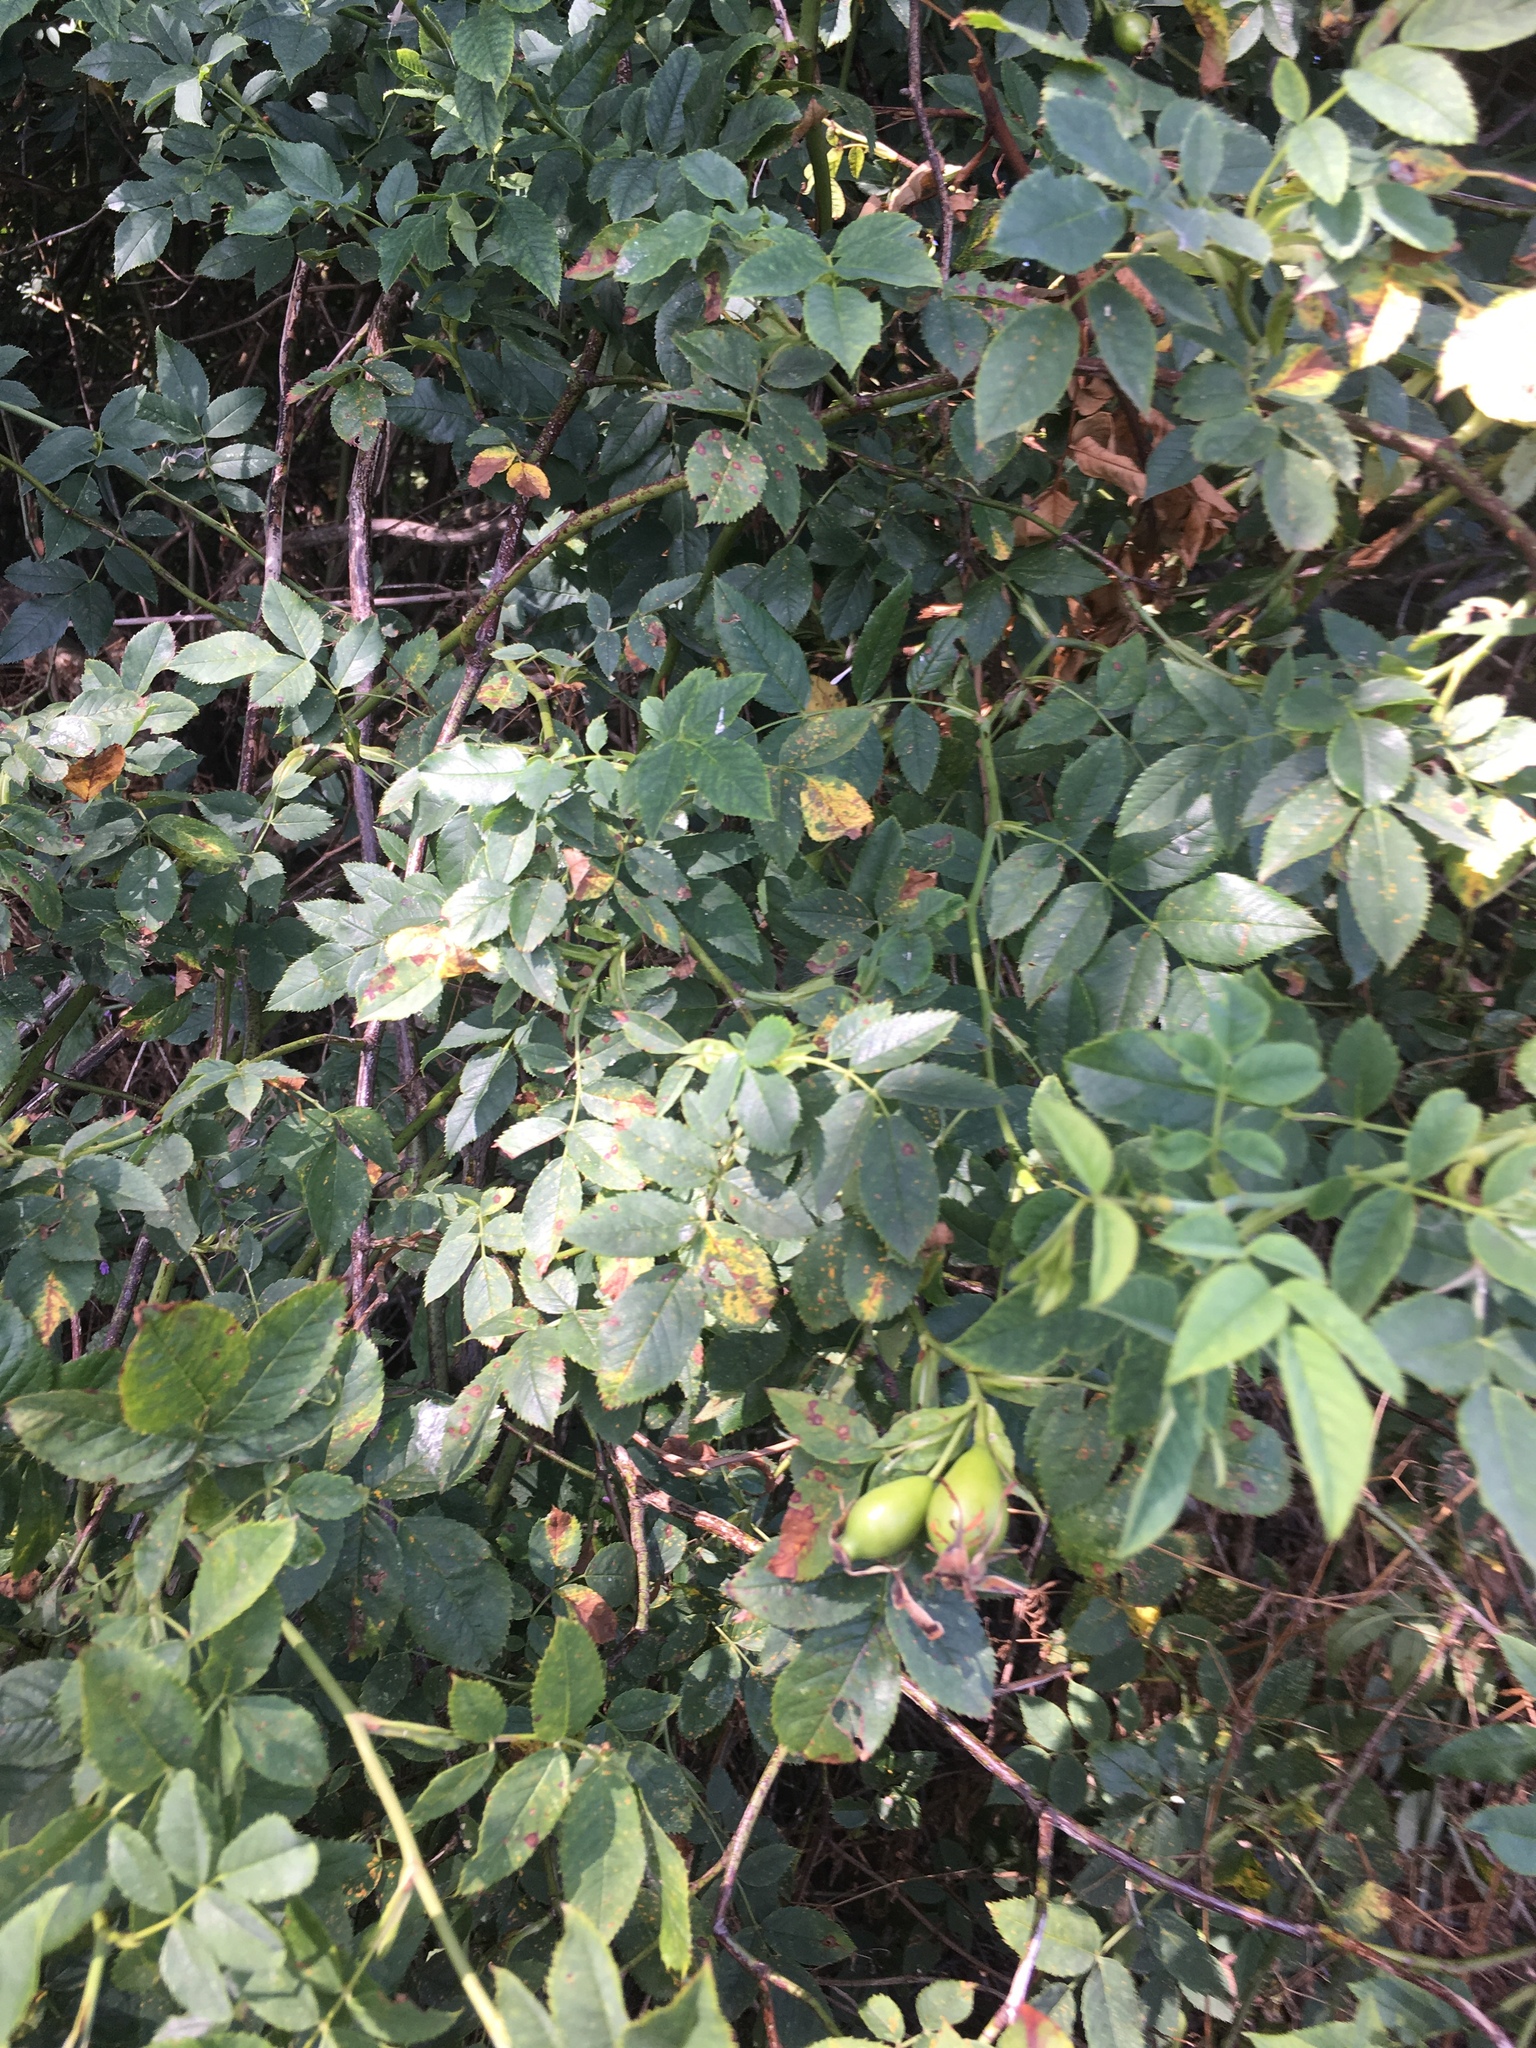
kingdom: Plantae
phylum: Tracheophyta
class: Magnoliopsida
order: Rosales
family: Rosaceae
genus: Rosa
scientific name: Rosa canina
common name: Dog rose
